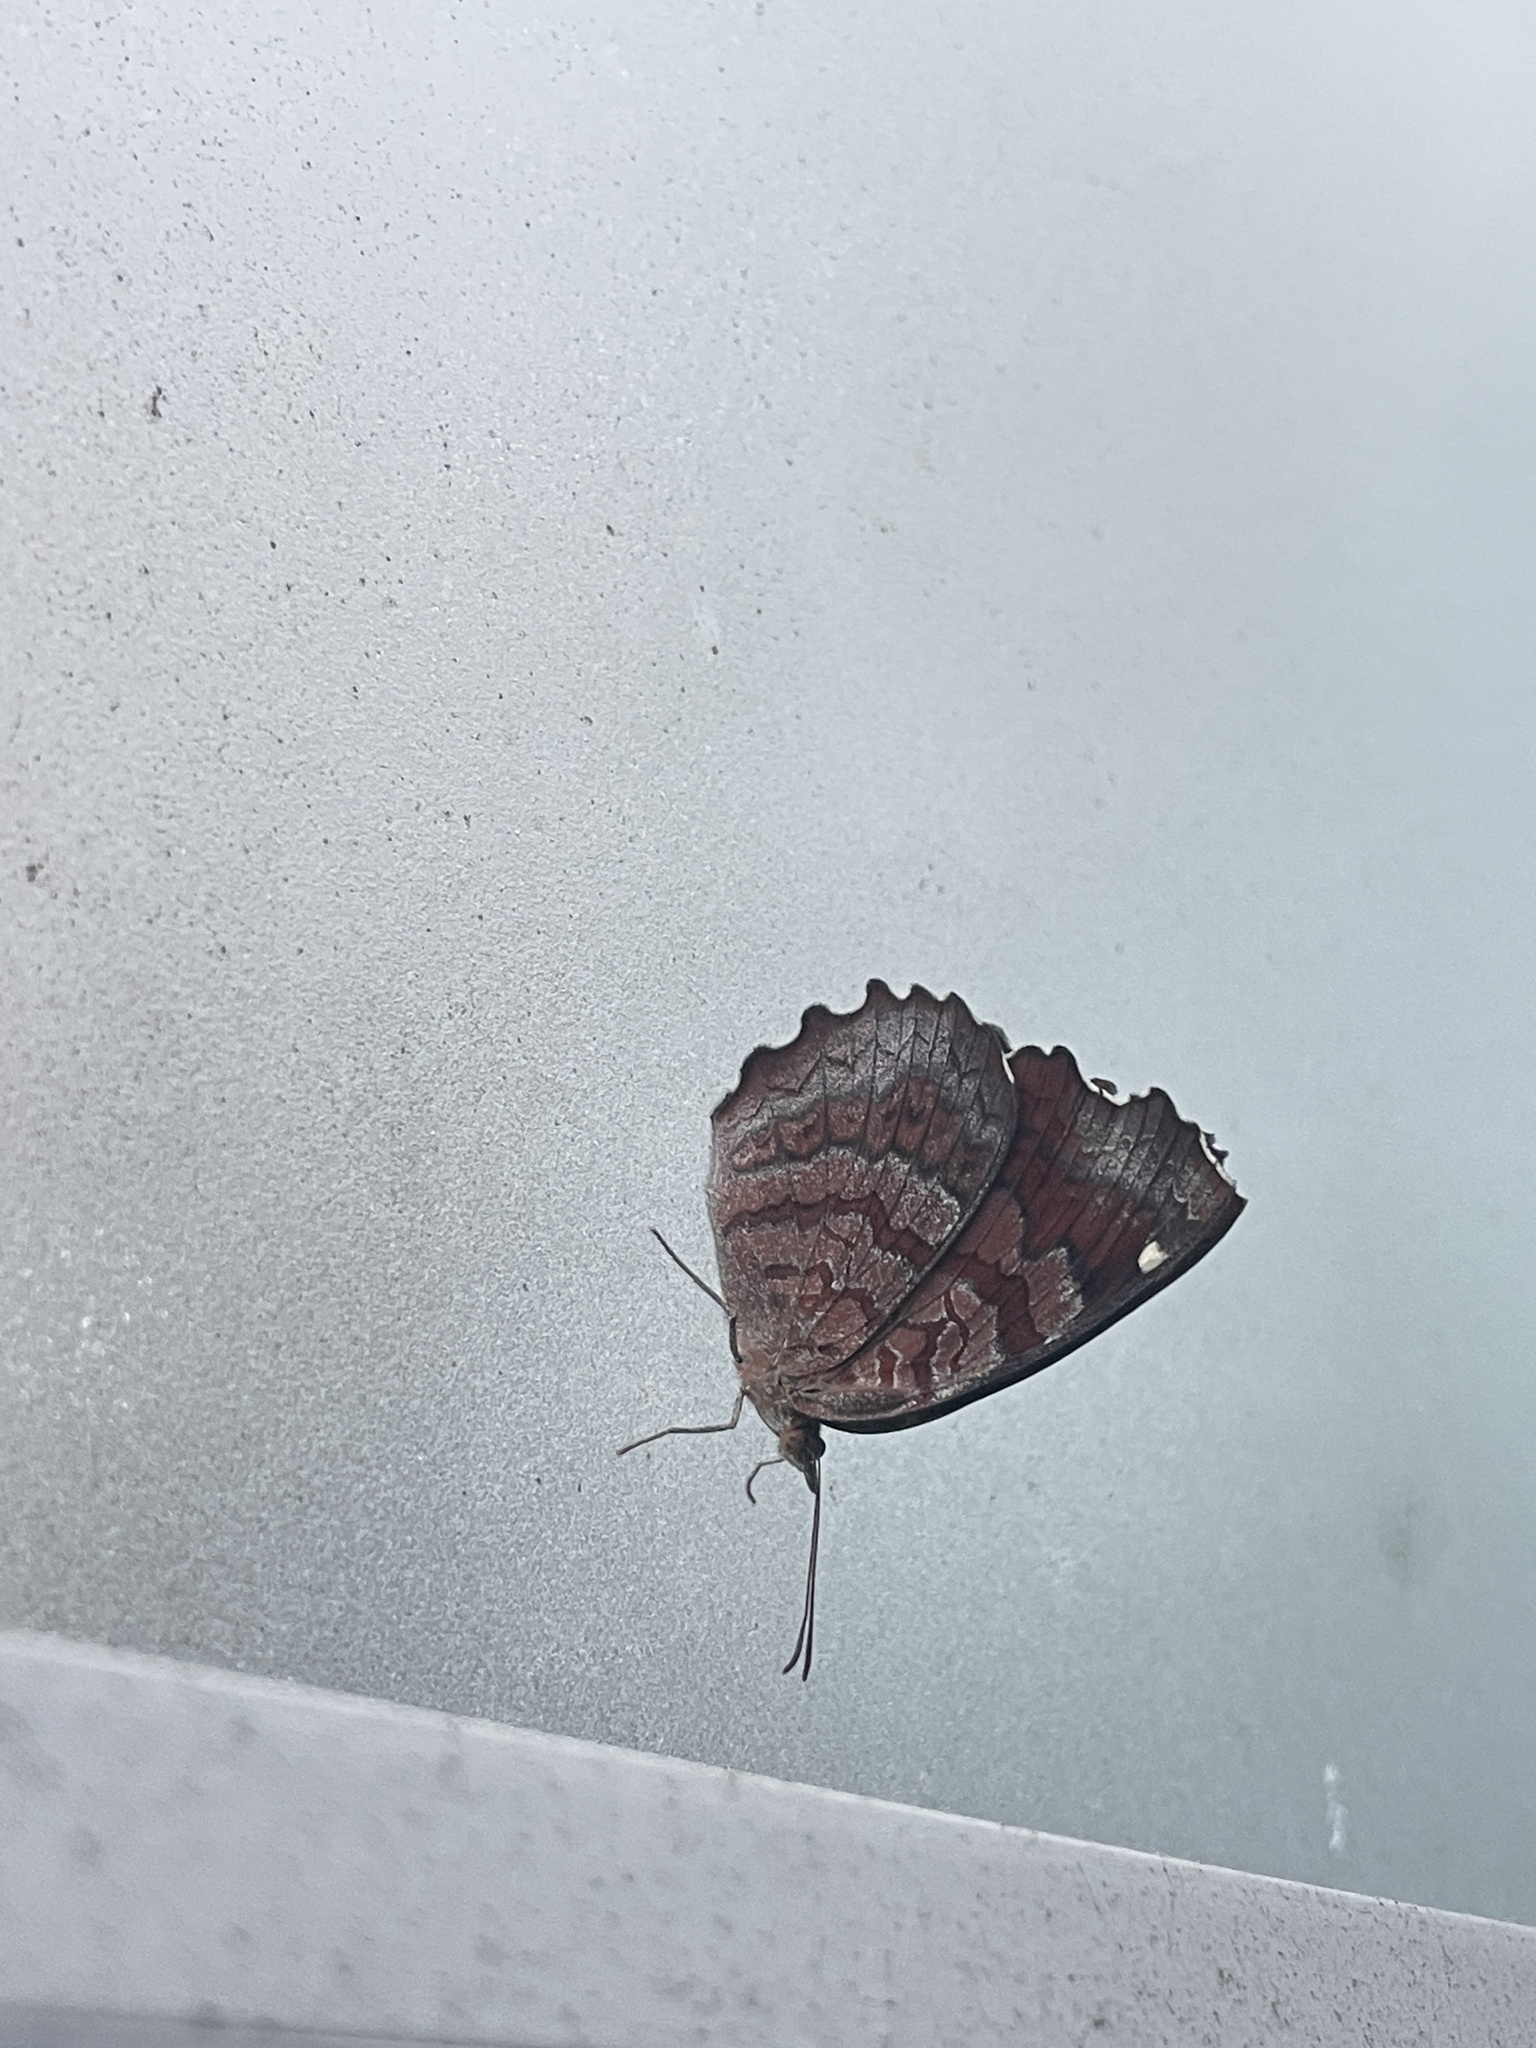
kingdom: Animalia
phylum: Arthropoda
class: Insecta
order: Lepidoptera
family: Nymphalidae
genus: Ariadne
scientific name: Ariadne ariadne
